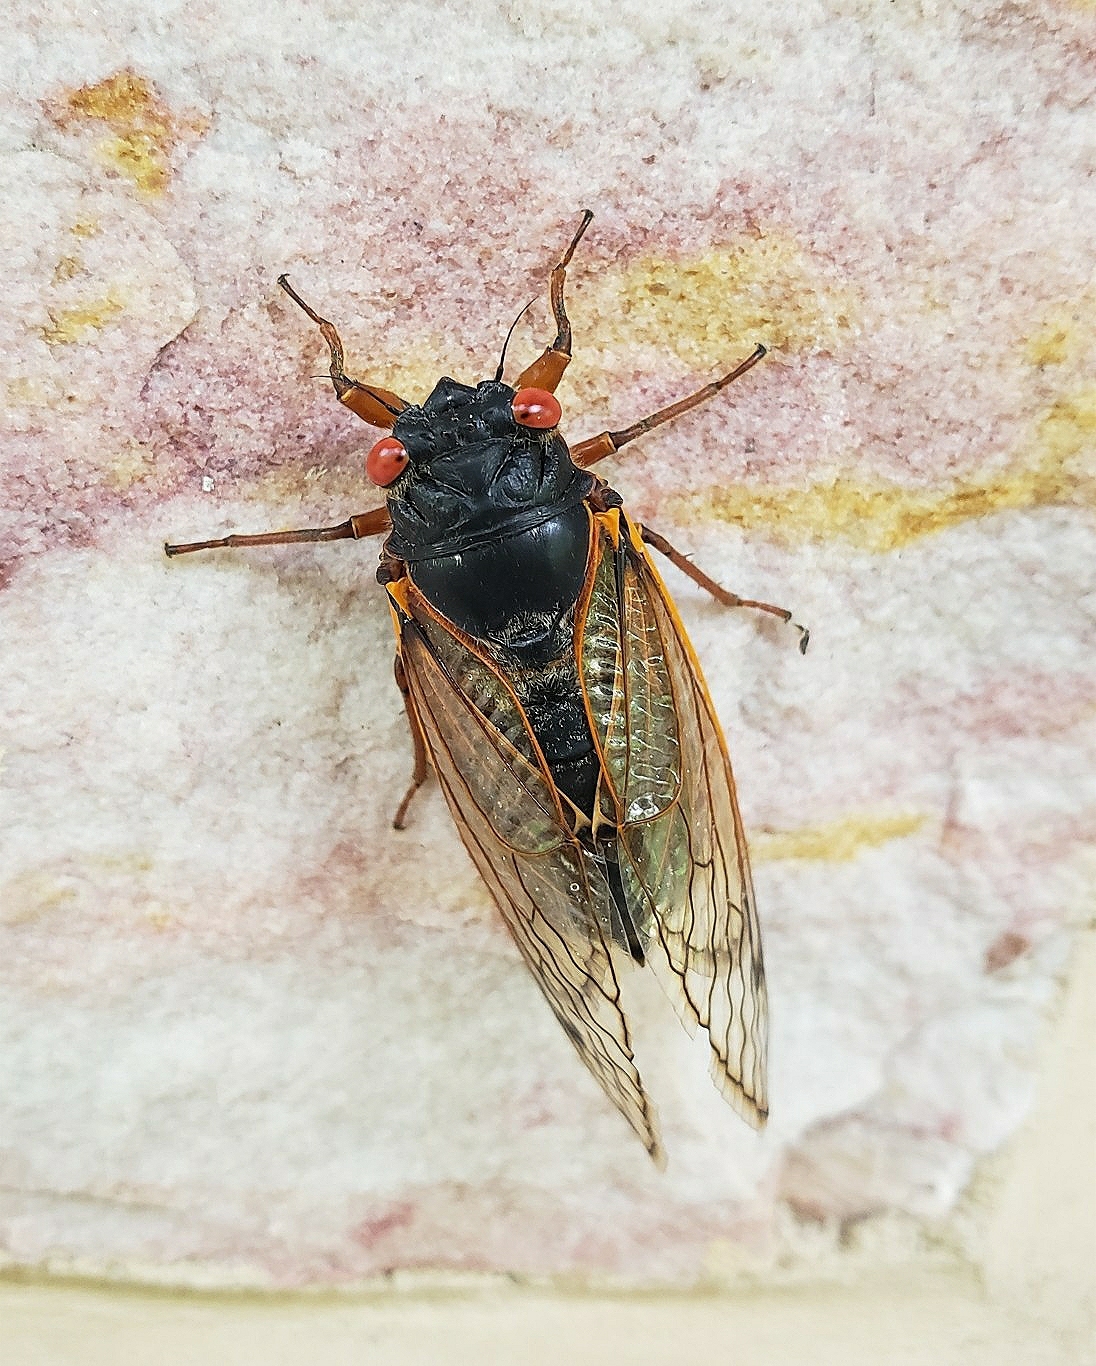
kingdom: Animalia
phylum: Arthropoda
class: Insecta
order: Hemiptera
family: Cicadidae
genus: Magicicada
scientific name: Magicicada septendecim
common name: Periodical cicada
